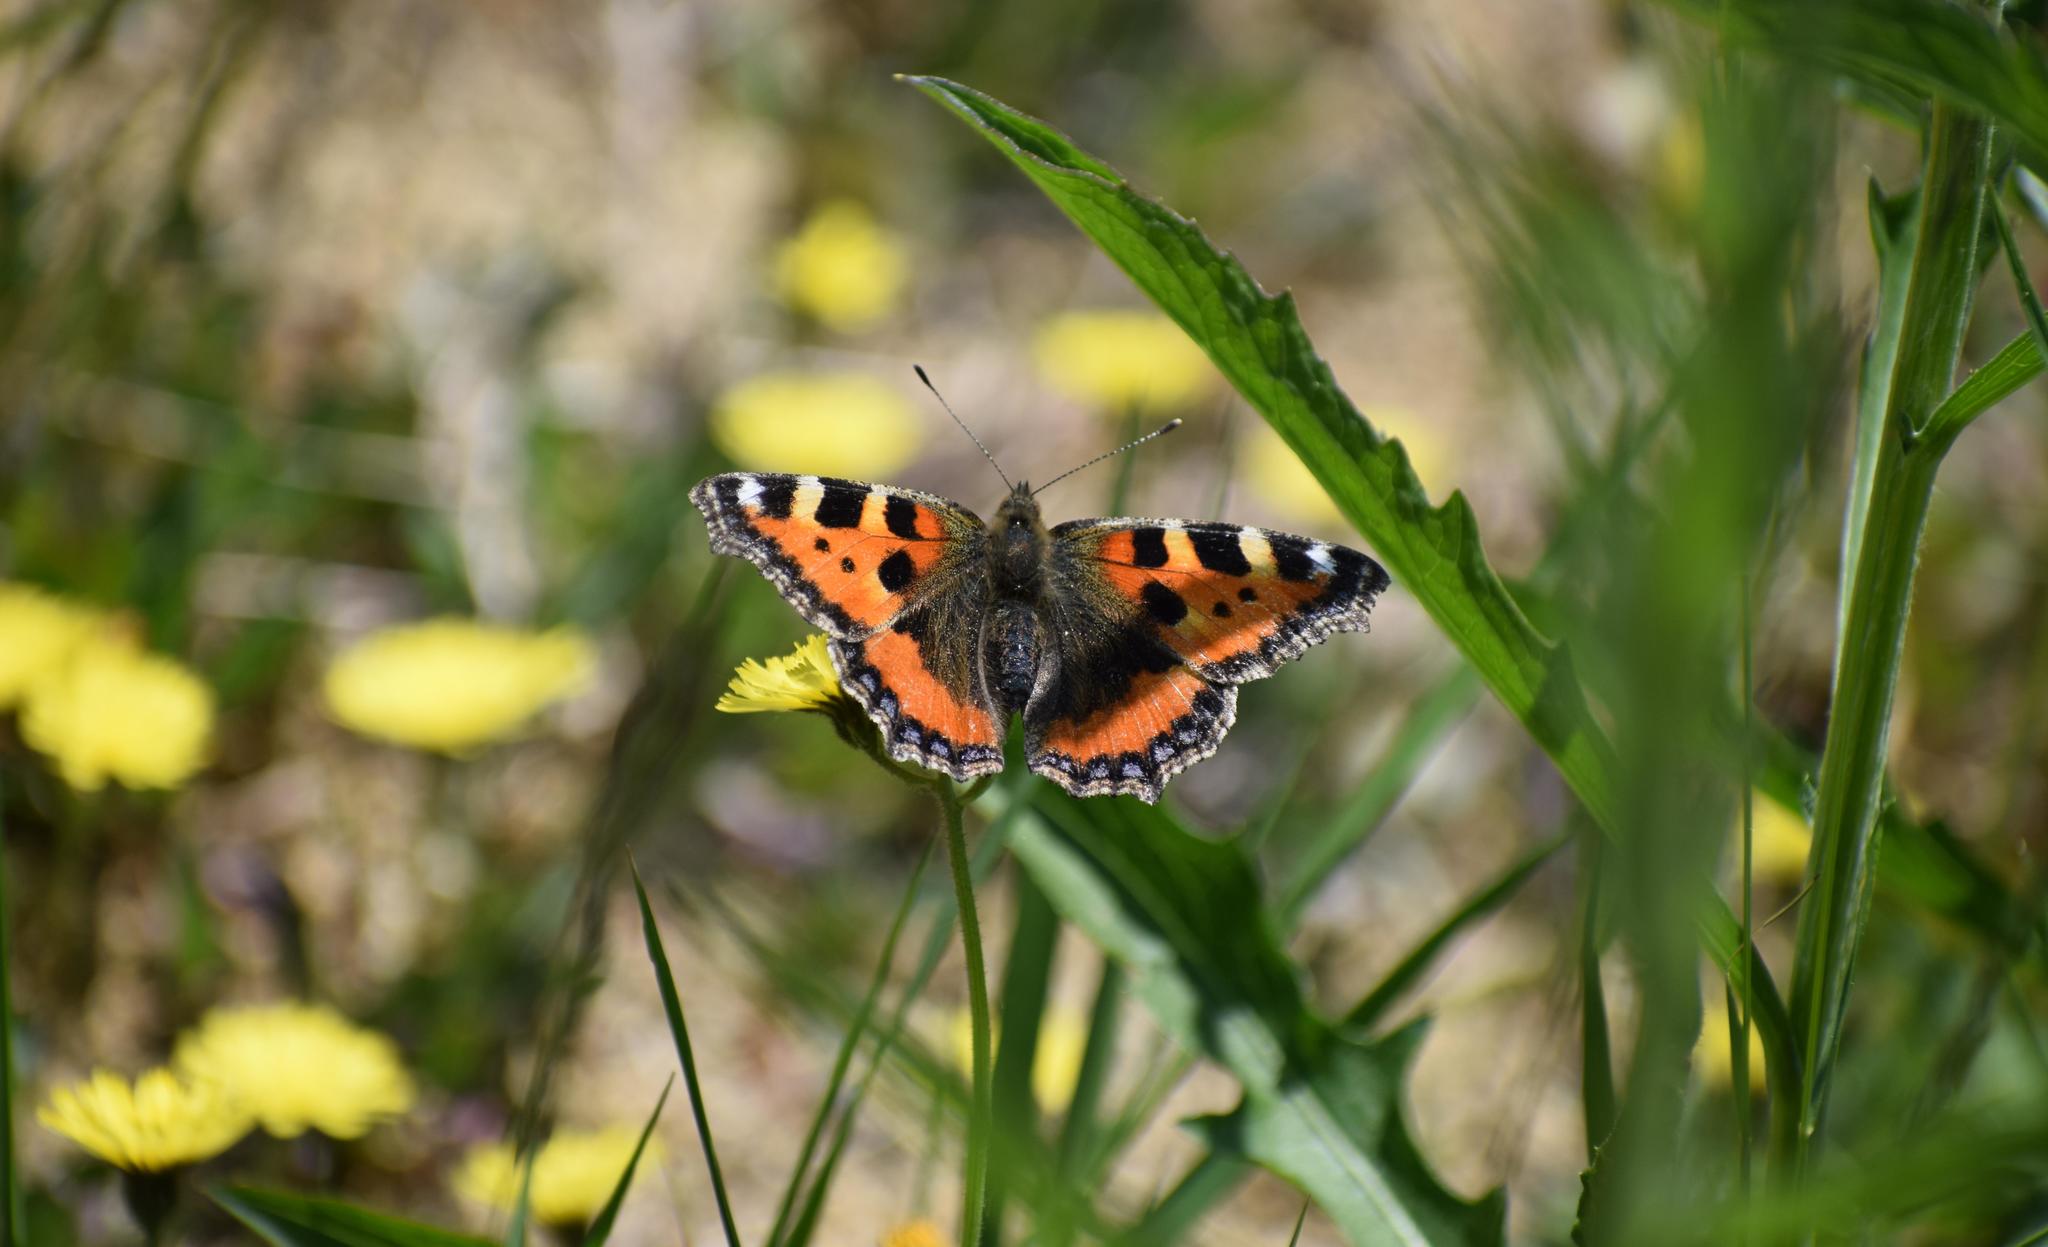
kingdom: Animalia
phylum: Arthropoda
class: Insecta
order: Lepidoptera
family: Nymphalidae
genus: Aglais
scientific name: Aglais urticae
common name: Small tortoiseshell
